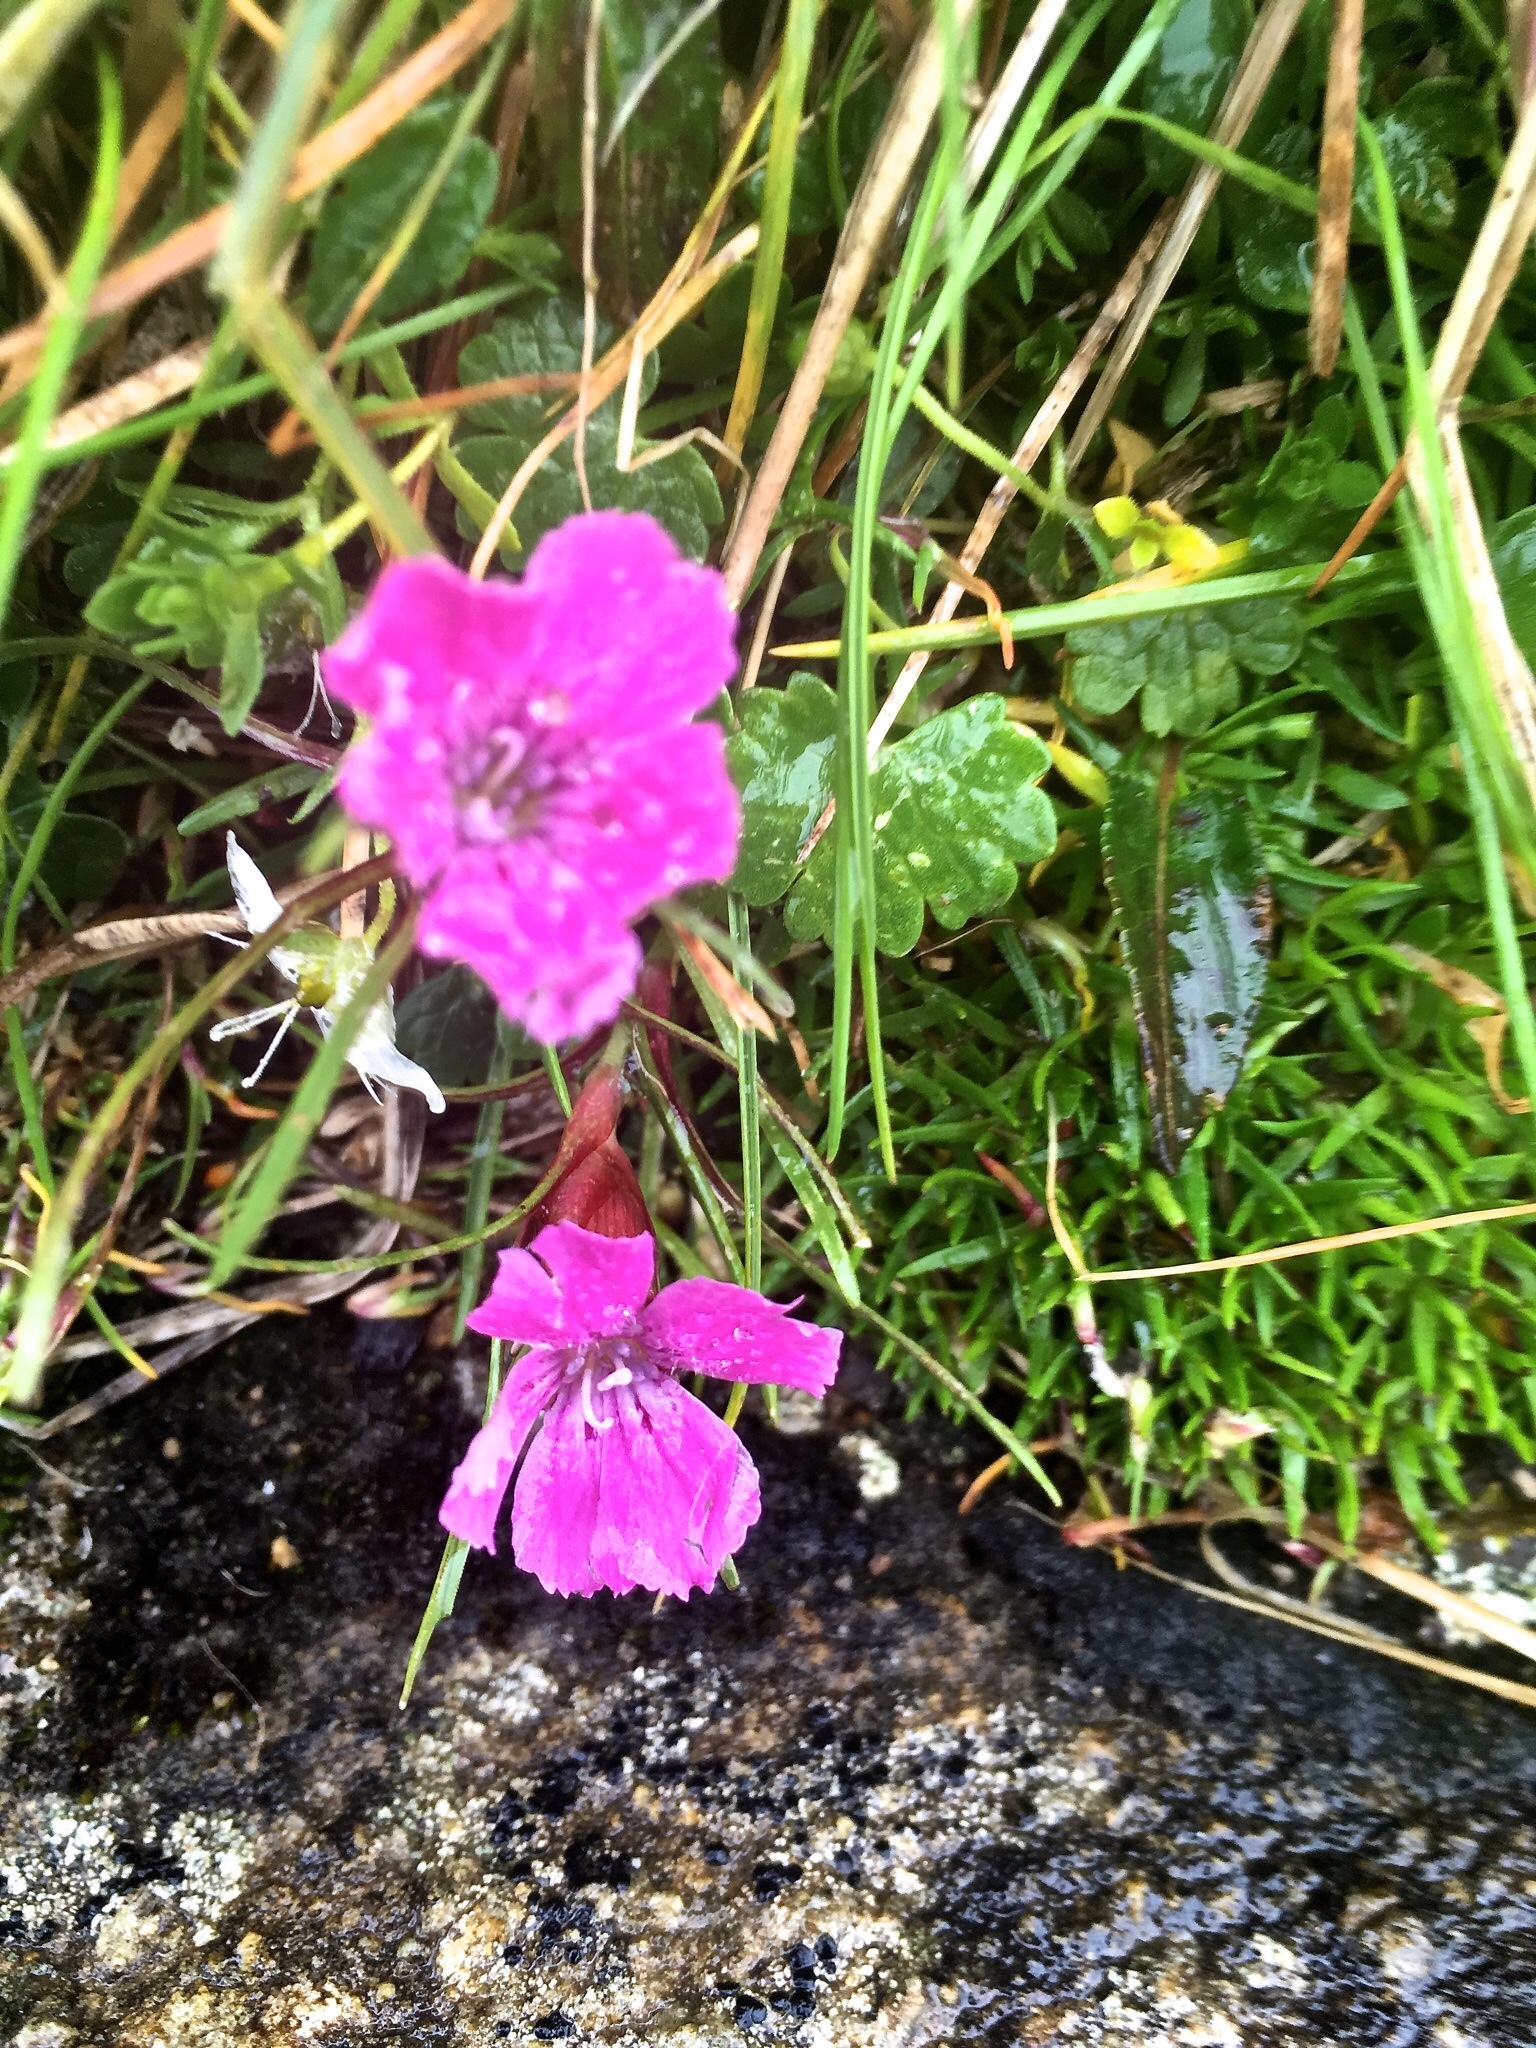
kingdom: Plantae
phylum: Tracheophyta
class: Magnoliopsida
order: Caryophyllales
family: Caryophyllaceae
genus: Dianthus
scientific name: Dianthus glacialis
